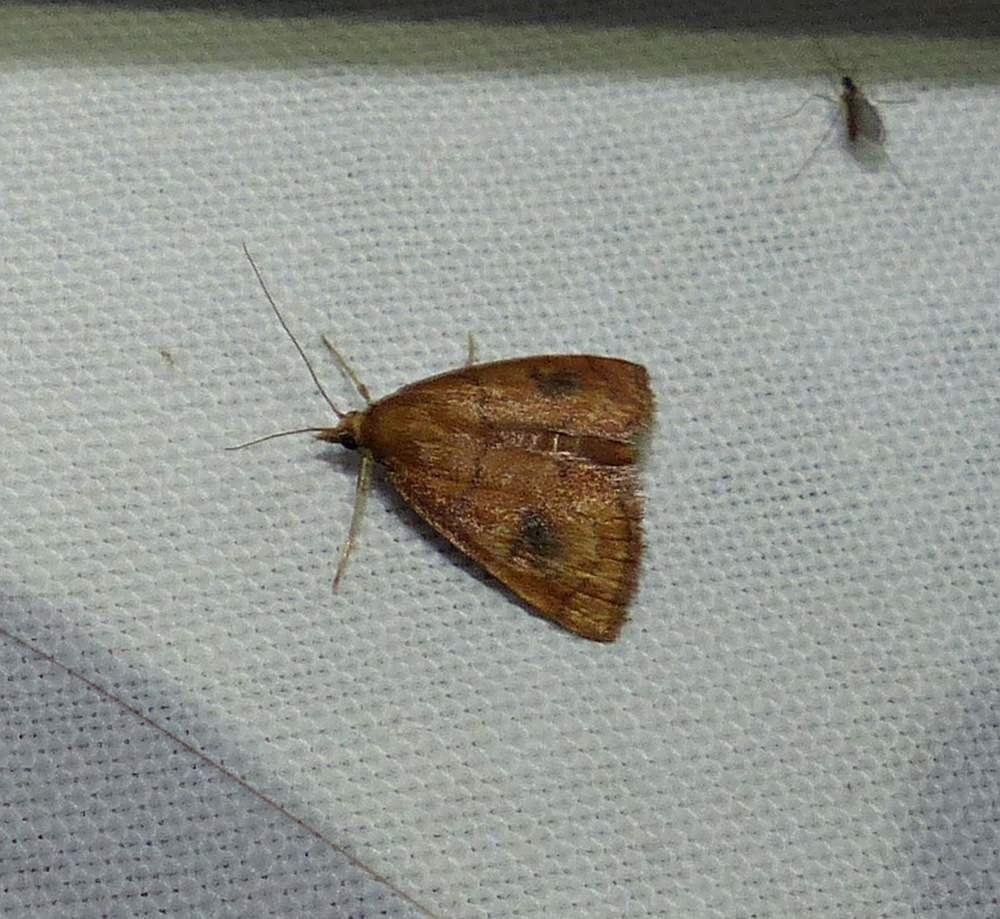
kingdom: Animalia
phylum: Arthropoda
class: Insecta
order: Lepidoptera
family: Crambidae
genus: Fumibotys
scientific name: Fumibotys fumalis
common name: Mint root borer moth
